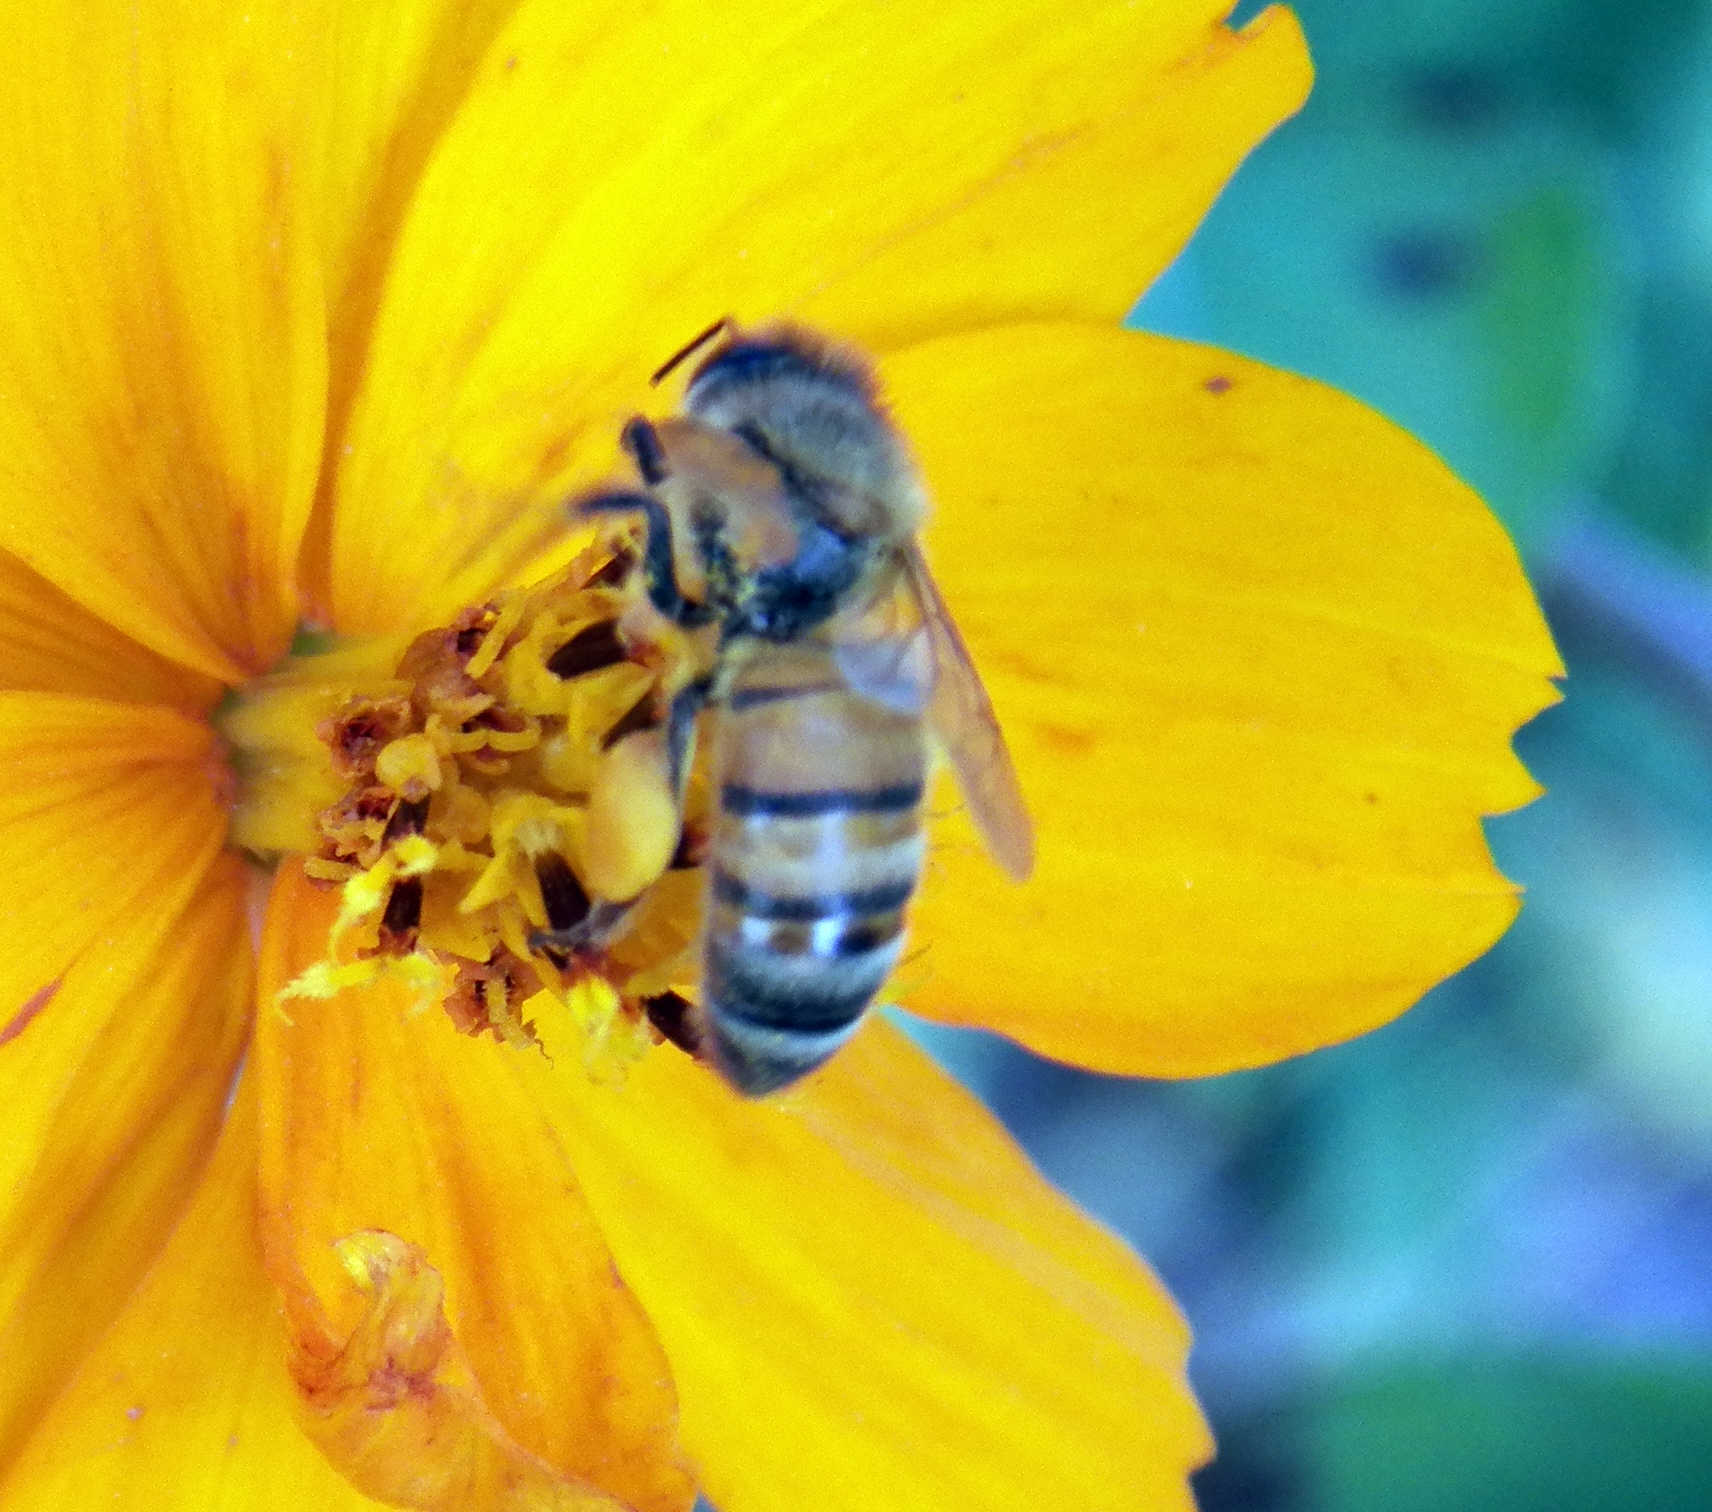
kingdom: Animalia
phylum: Arthropoda
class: Insecta
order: Hymenoptera
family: Apidae
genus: Apis
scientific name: Apis mellifera
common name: Honey bee
